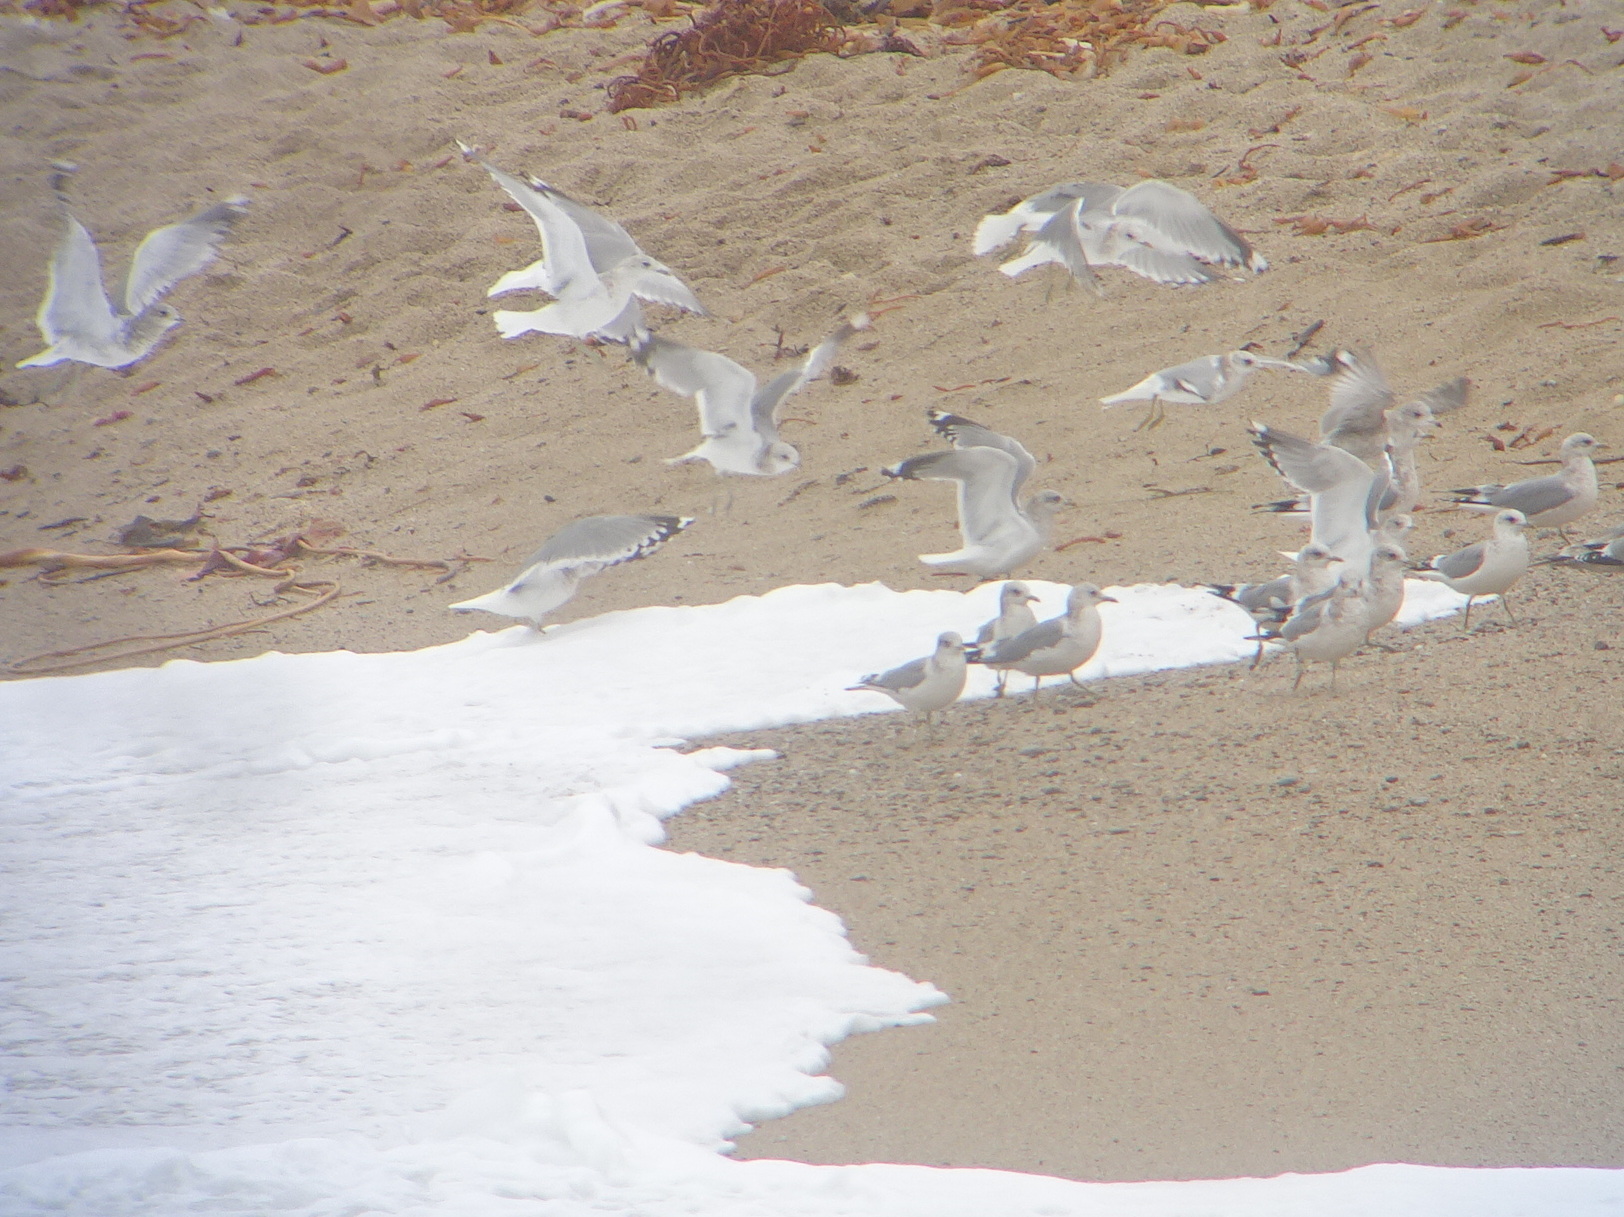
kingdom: Animalia
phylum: Chordata
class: Aves
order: Charadriiformes
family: Laridae
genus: Larus
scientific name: Larus brachyrhynchus
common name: Short-billed gull
